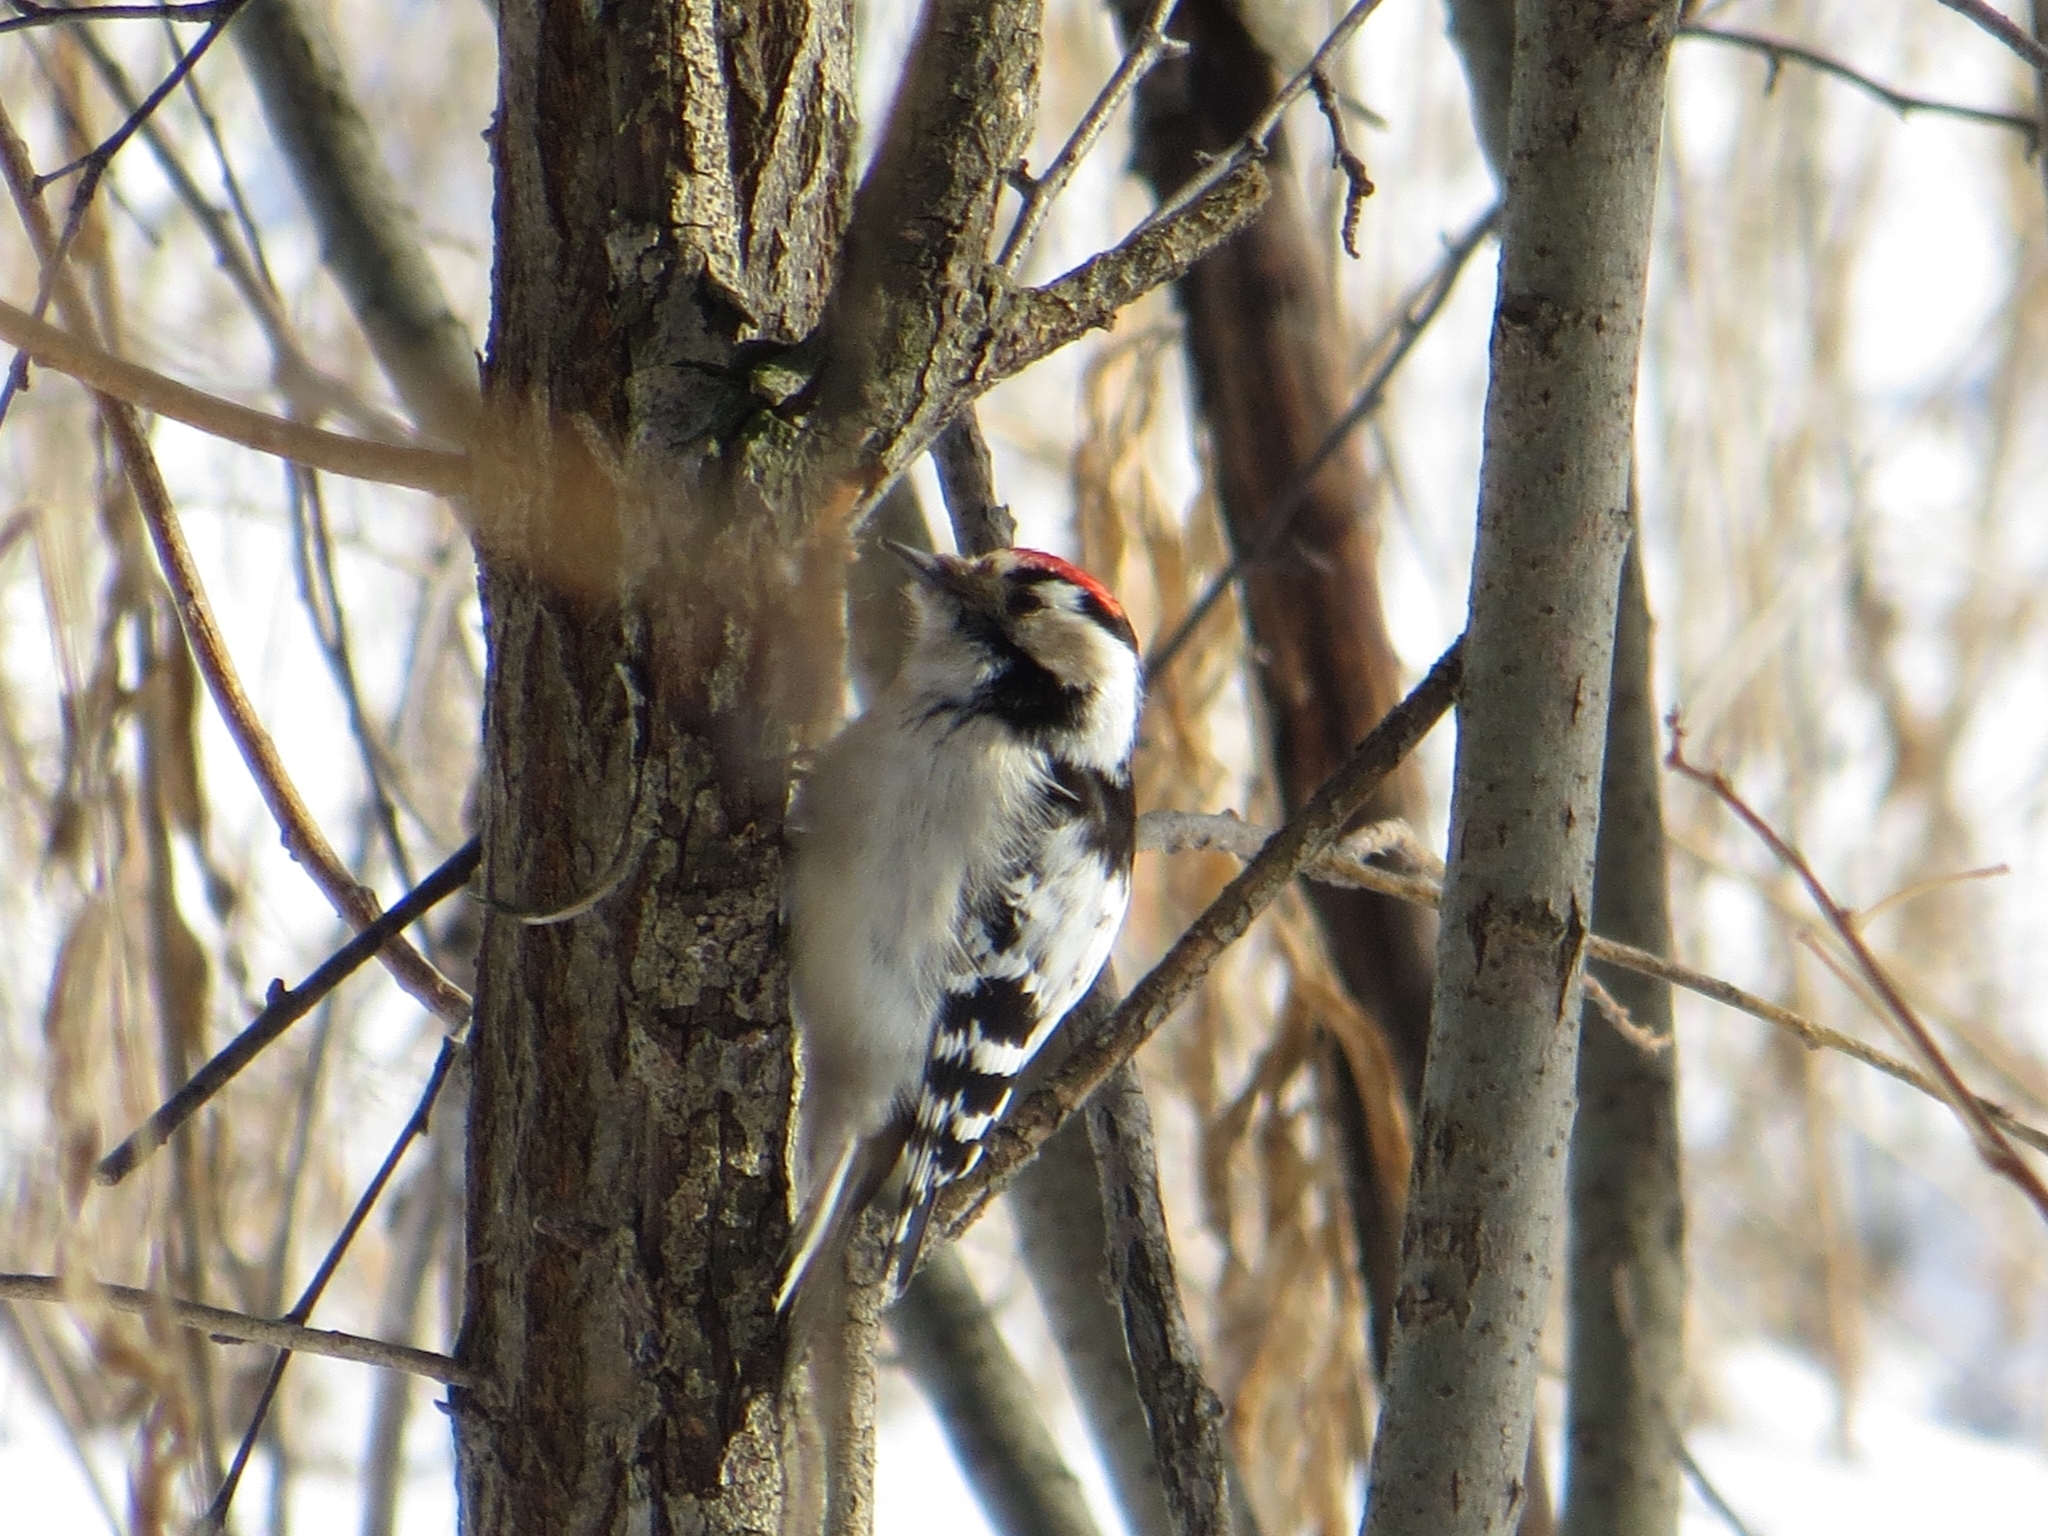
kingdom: Animalia
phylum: Chordata
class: Aves
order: Piciformes
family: Picidae
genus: Dryobates
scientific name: Dryobates minor
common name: Lesser spotted woodpecker
